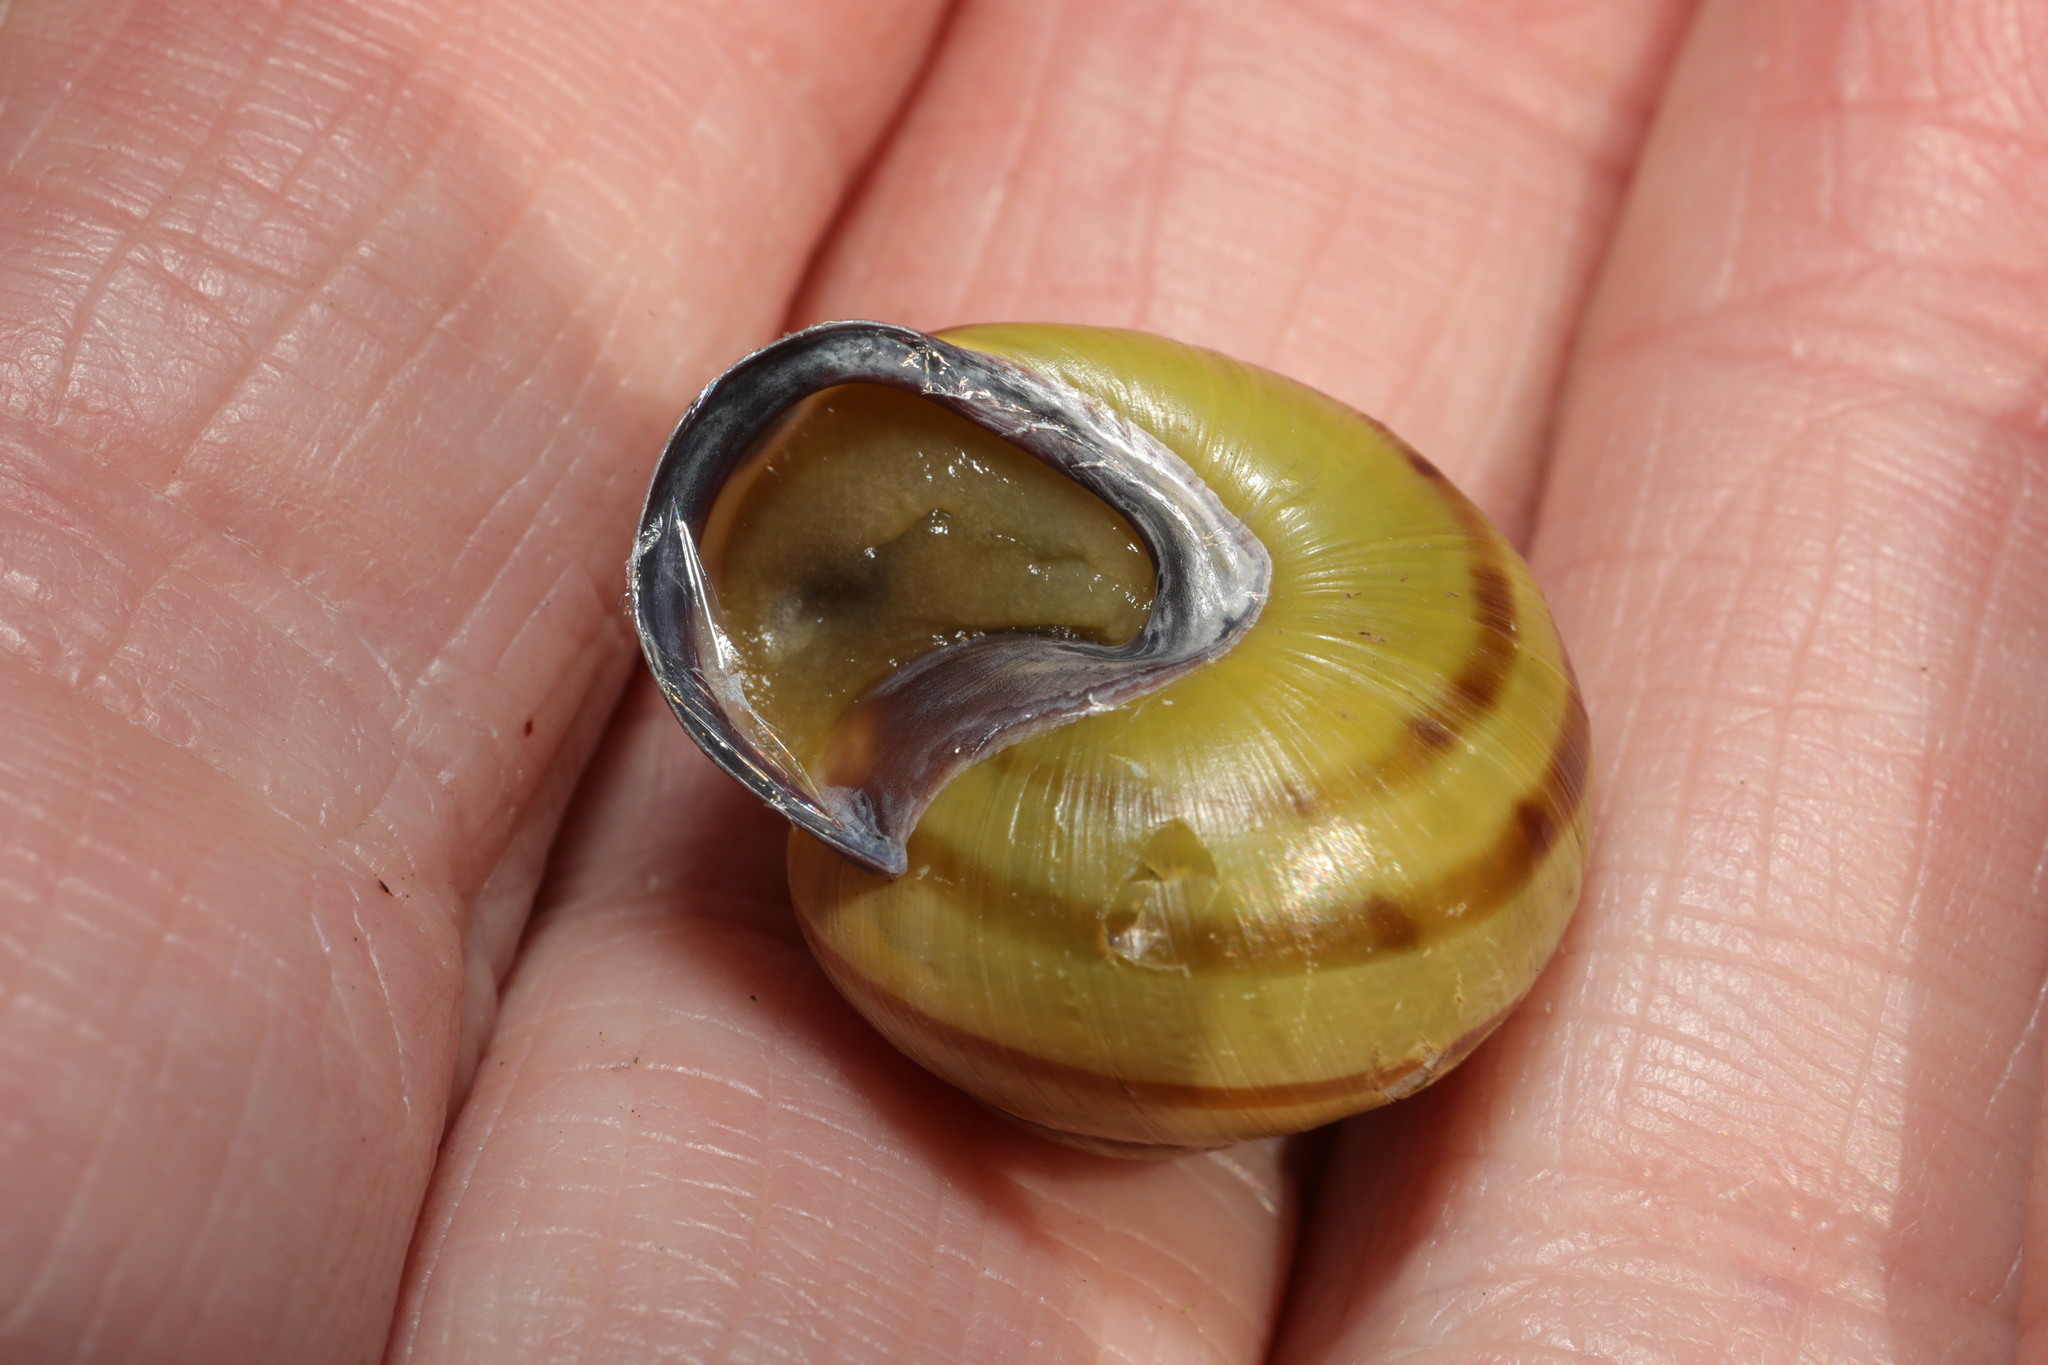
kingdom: Animalia
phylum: Mollusca
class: Gastropoda
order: Stylommatophora
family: Helicidae
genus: Cepaea
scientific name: Cepaea nemoralis
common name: Grovesnail
